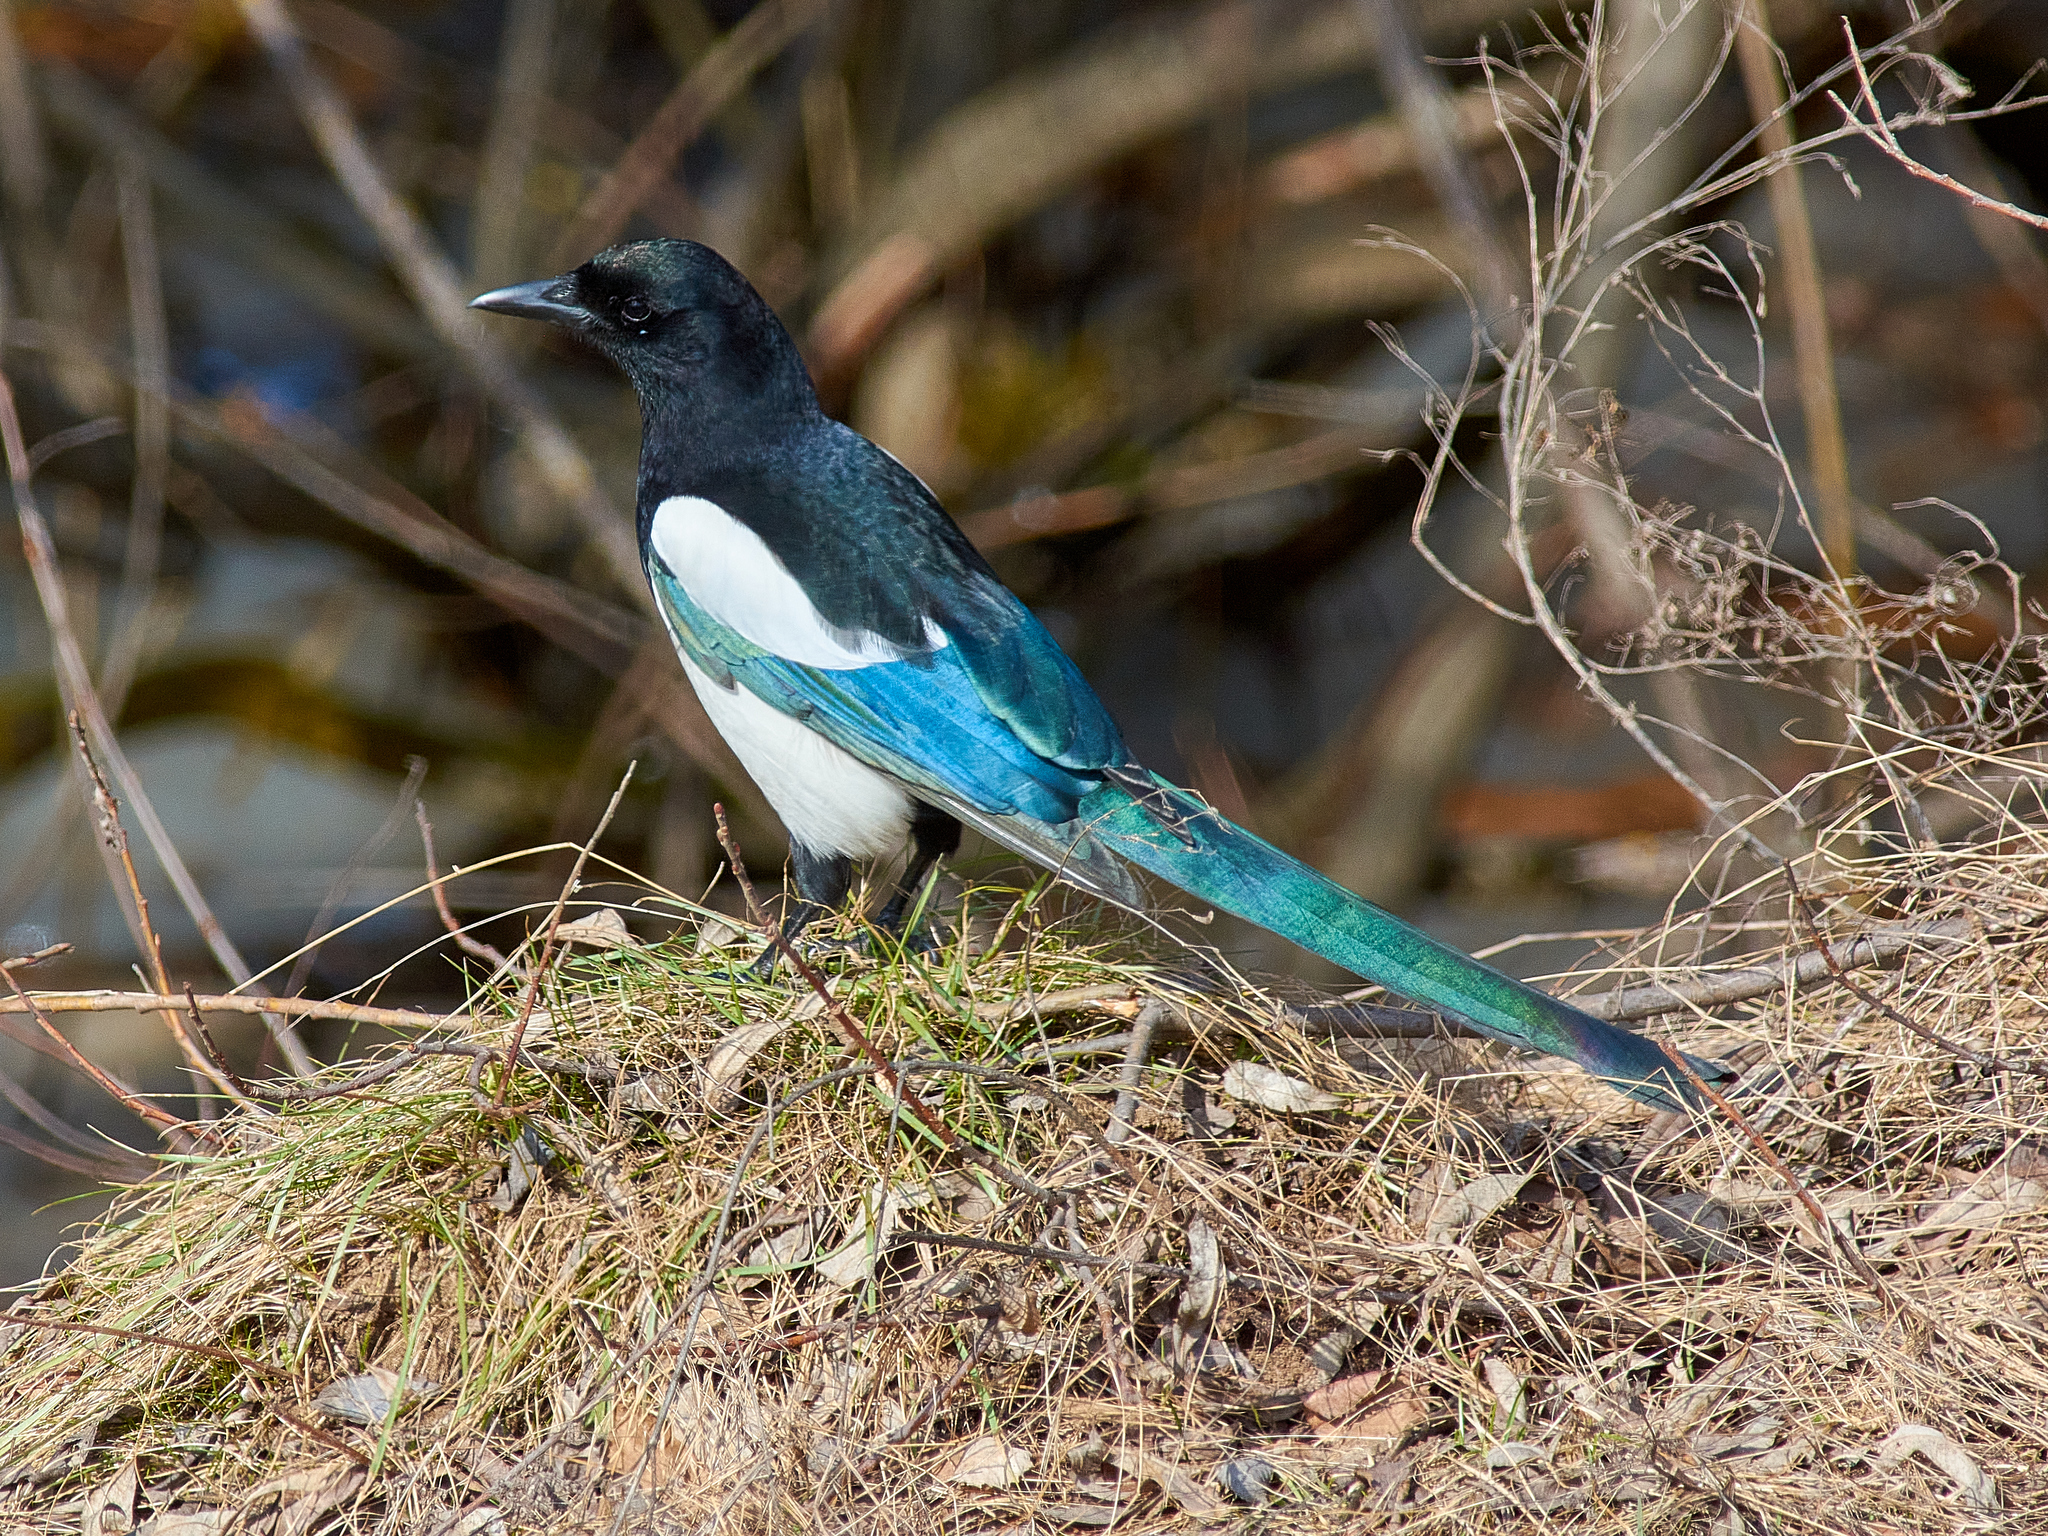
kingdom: Animalia
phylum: Chordata
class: Aves
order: Passeriformes
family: Corvidae
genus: Pica
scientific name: Pica pica
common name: Eurasian magpie
